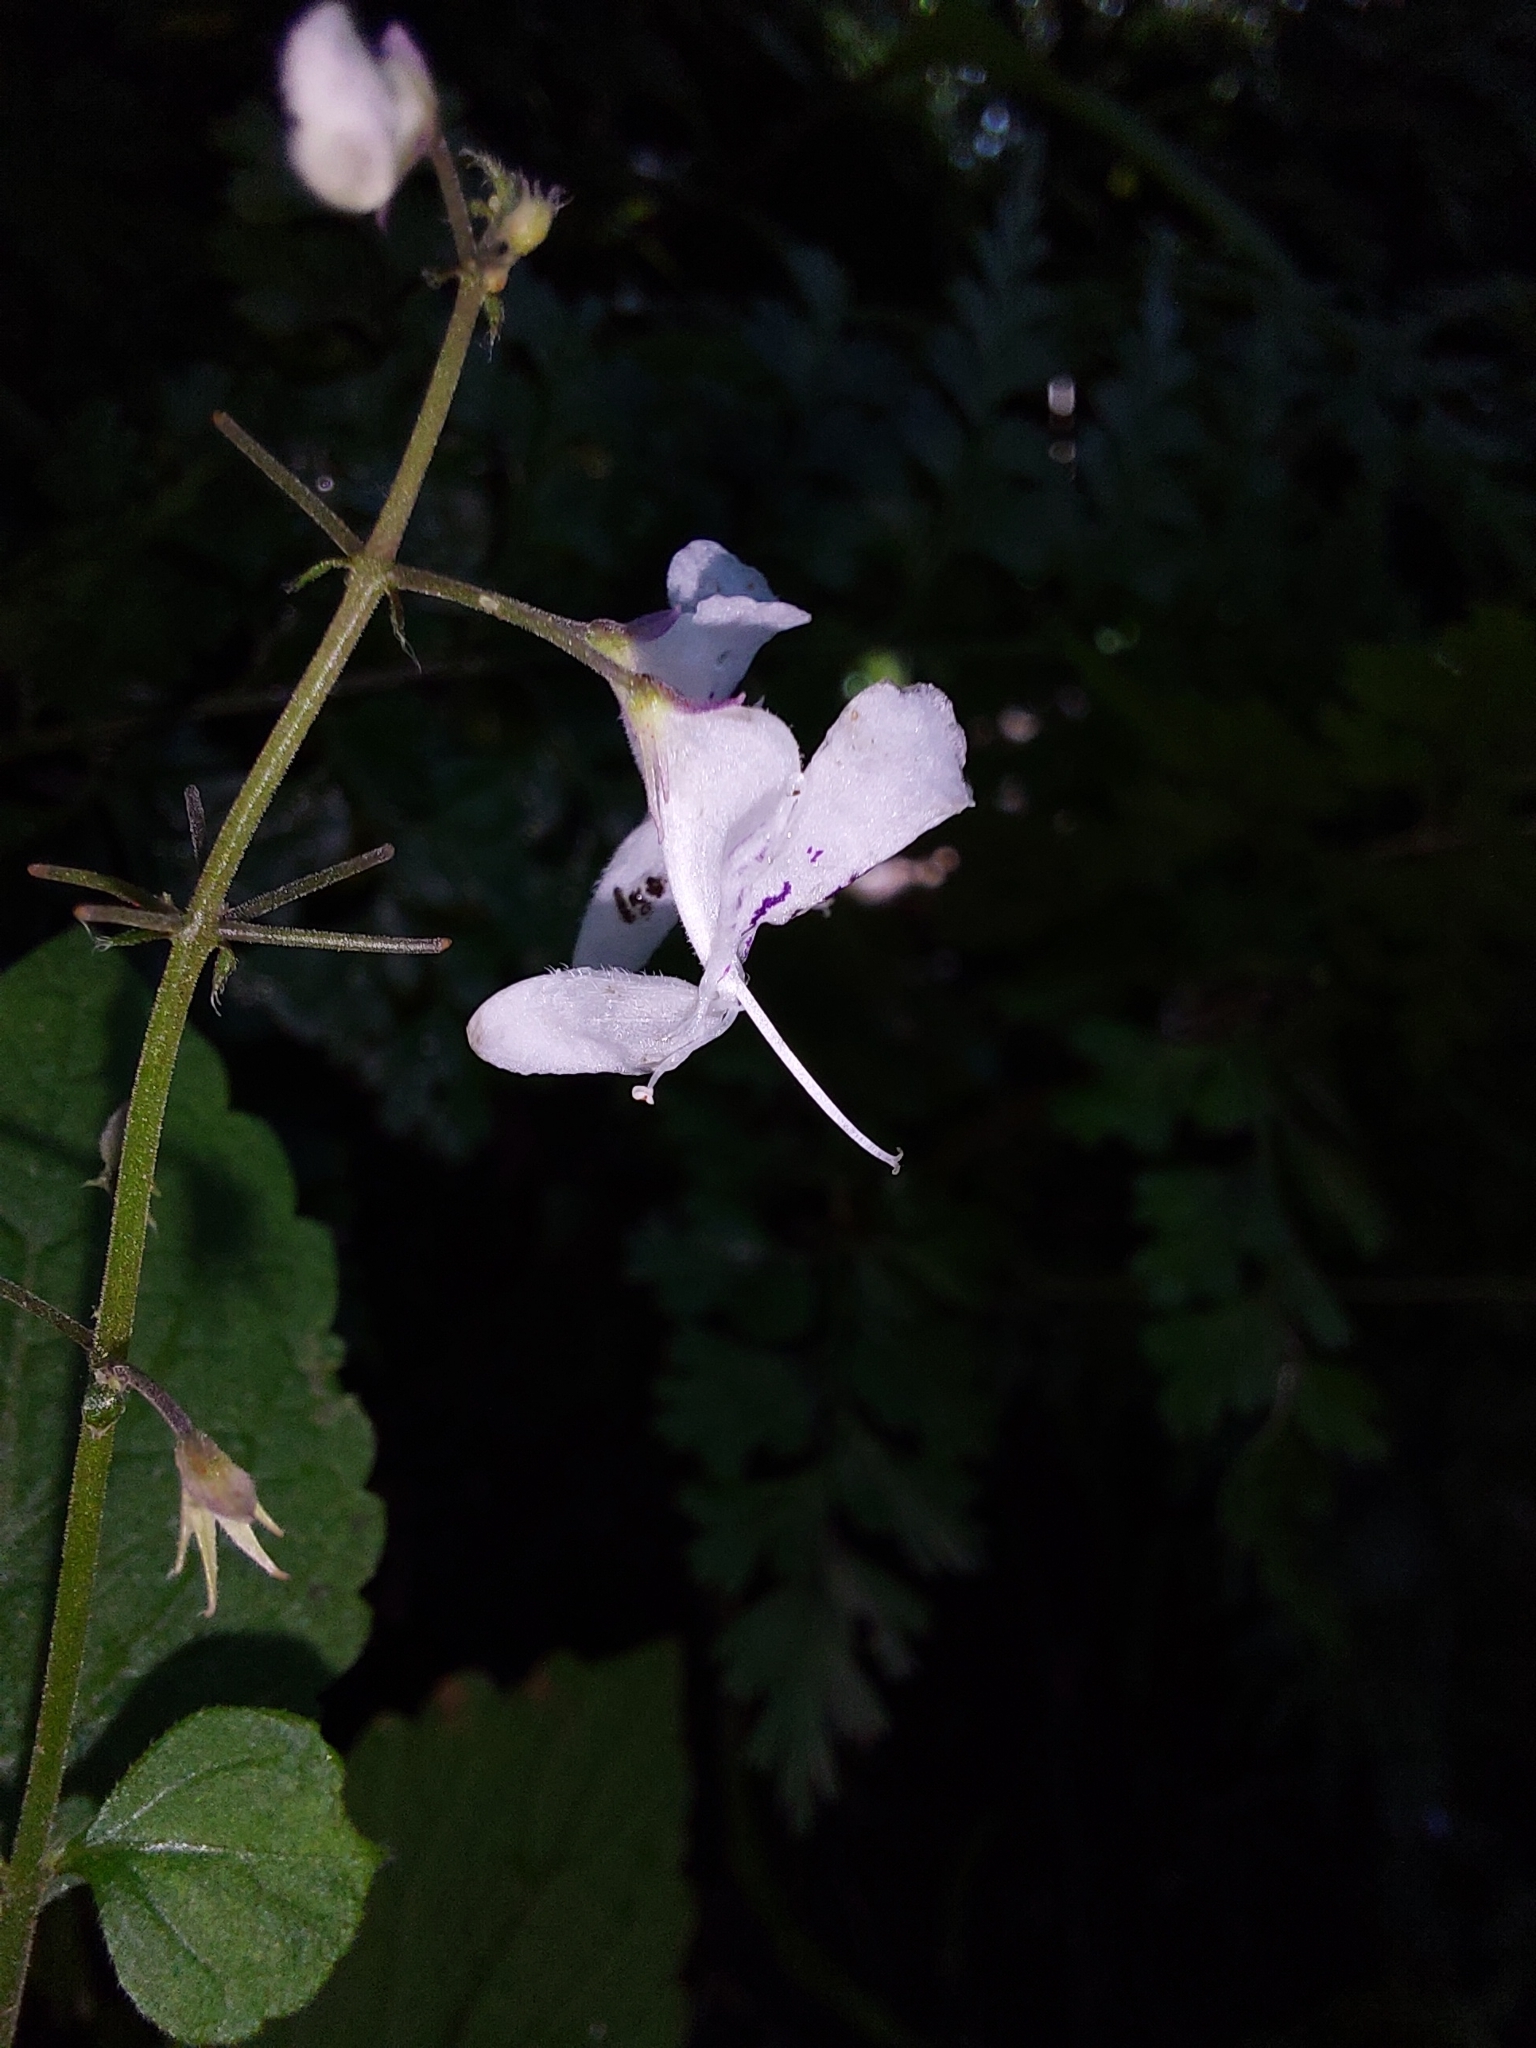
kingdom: Plantae
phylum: Tracheophyta
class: Magnoliopsida
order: Lamiales
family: Lamiaceae
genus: Plectranthus
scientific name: Plectranthus grallatus
